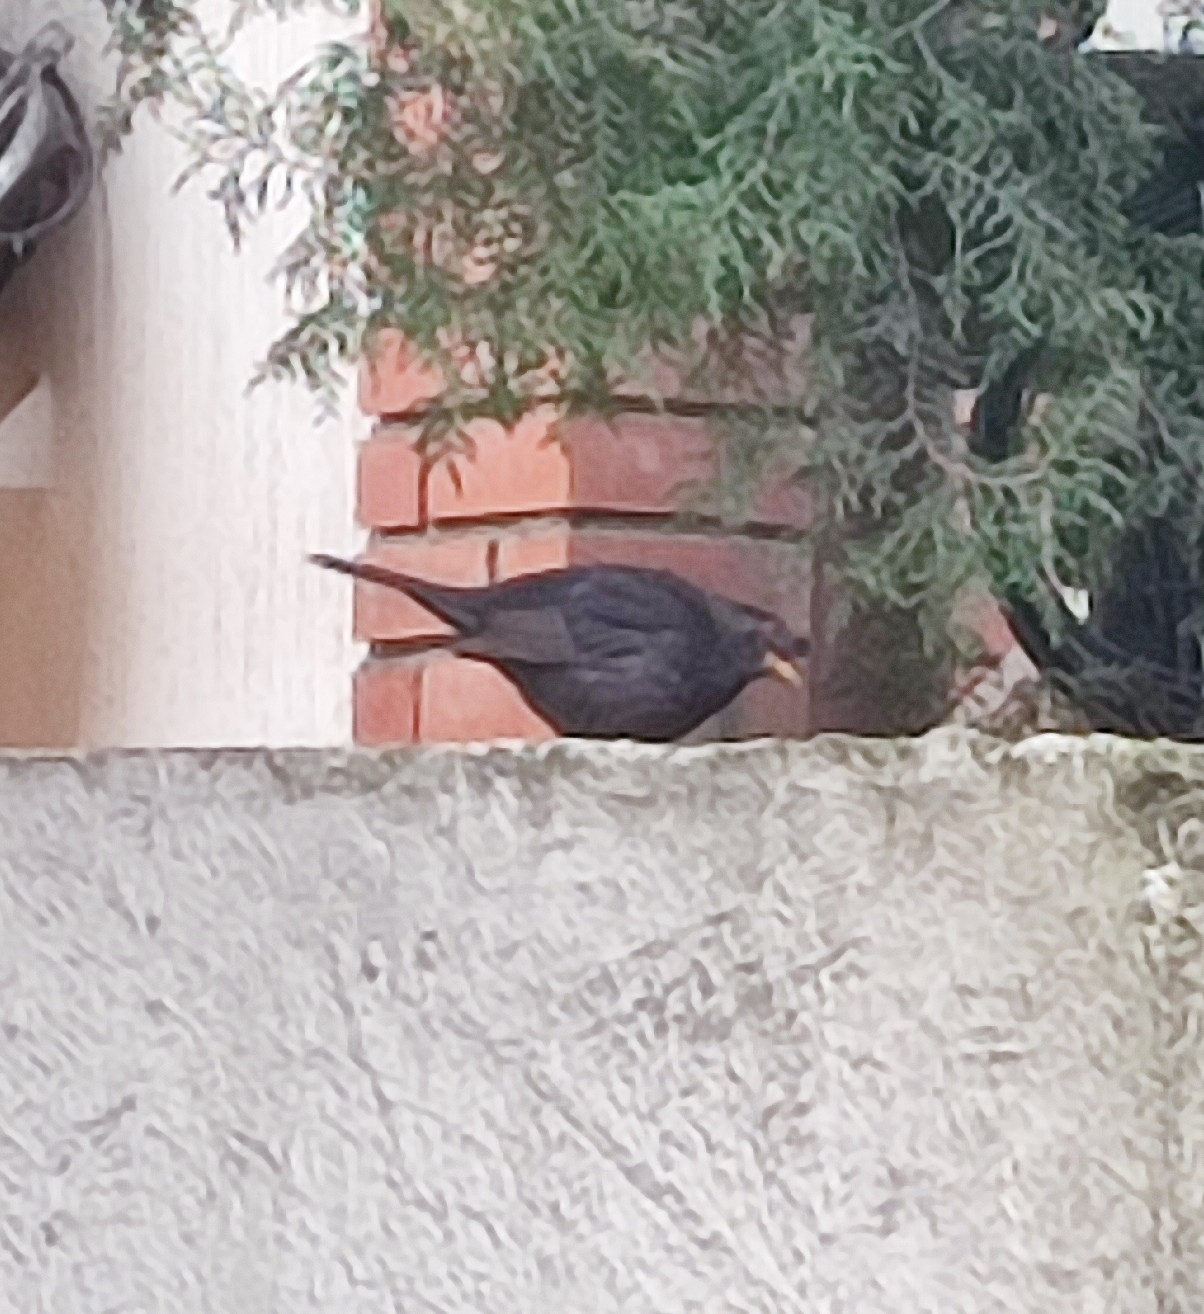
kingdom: Animalia
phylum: Chordata
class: Aves
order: Passeriformes
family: Turdidae
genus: Turdus
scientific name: Turdus merula
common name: Common blackbird
